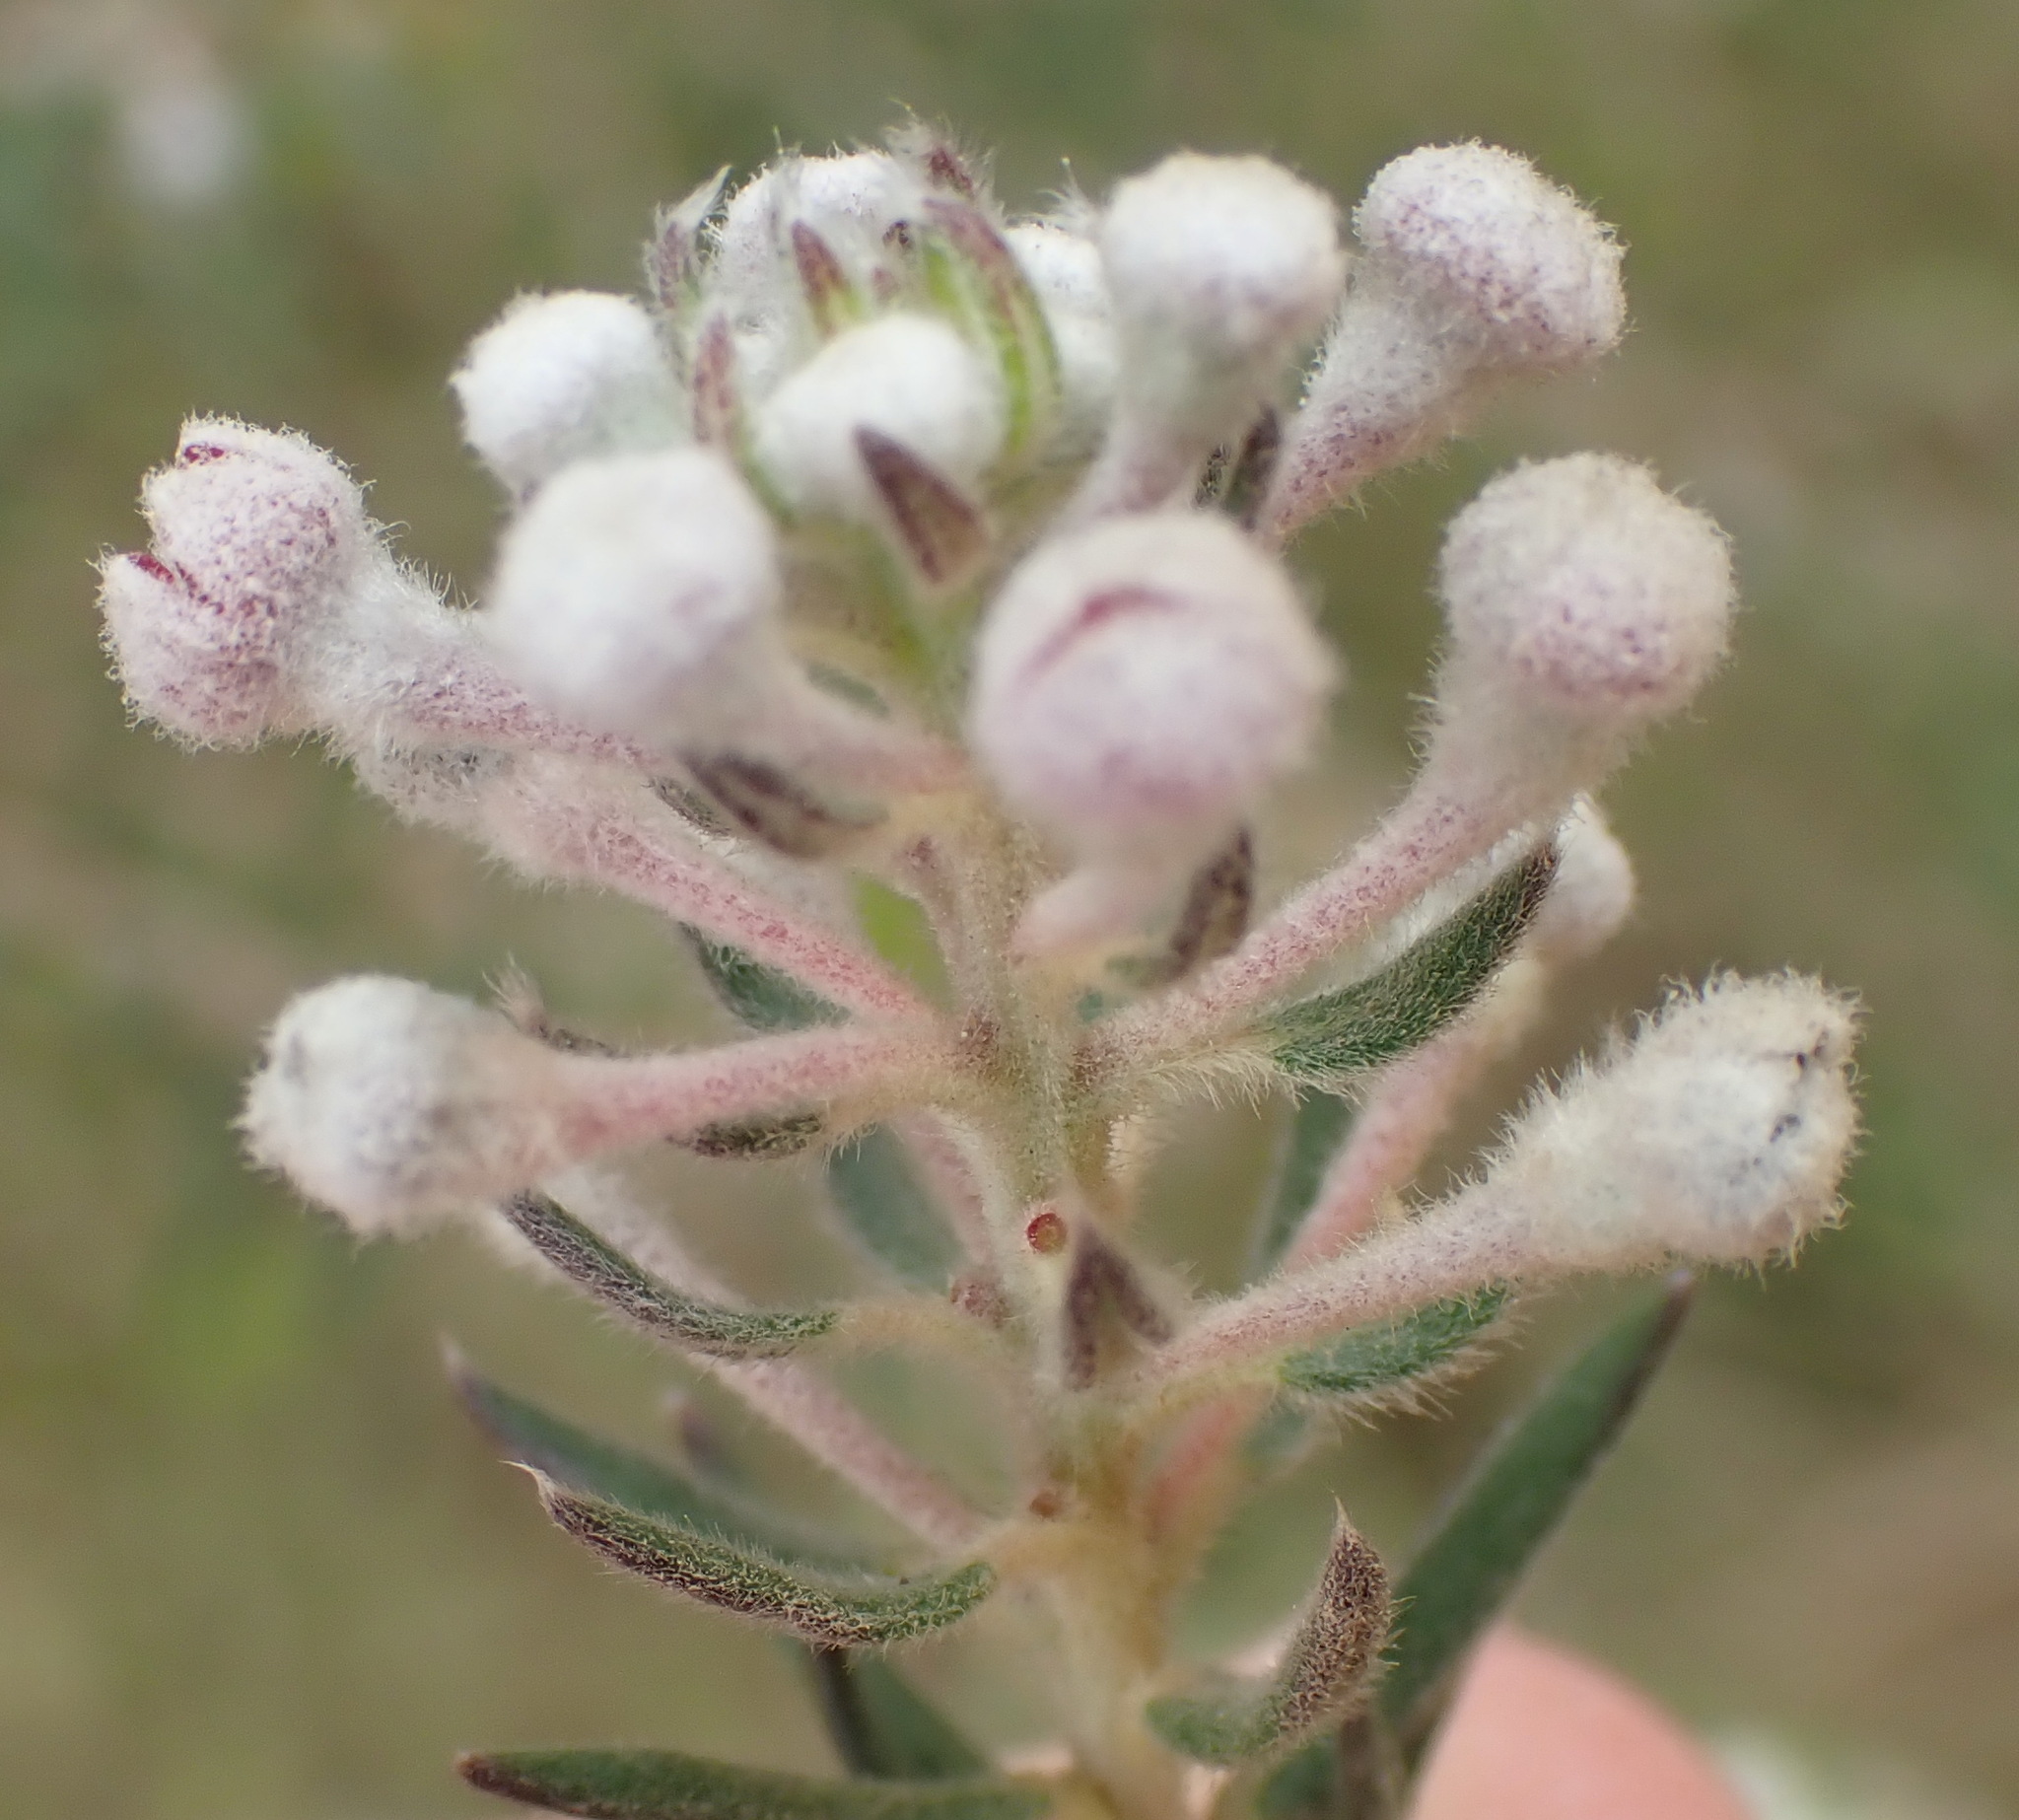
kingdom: Plantae
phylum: Tracheophyta
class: Magnoliopsida
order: Rosales
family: Rhamnaceae
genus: Phylica
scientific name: Phylica pinea
